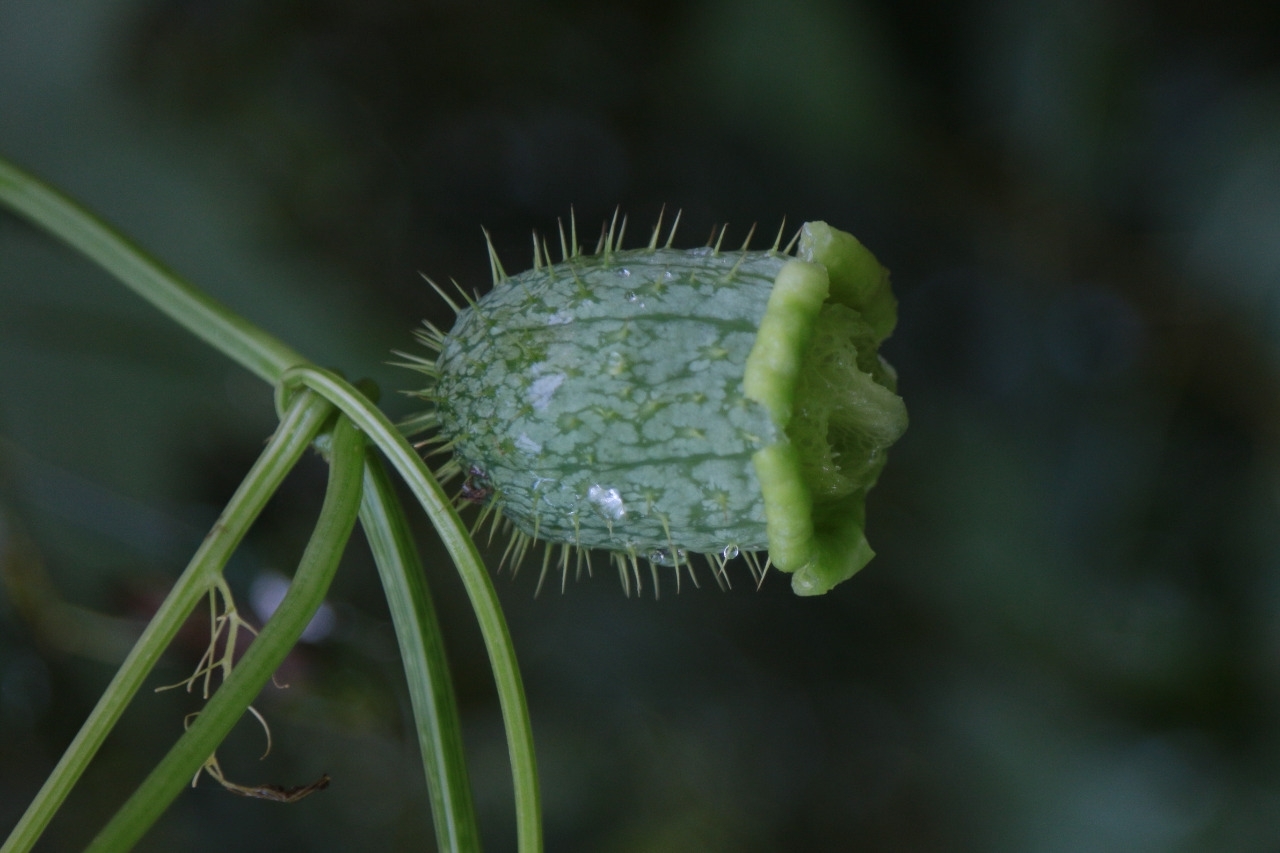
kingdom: Plantae
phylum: Tracheophyta
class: Magnoliopsida
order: Cucurbitales
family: Cucurbitaceae
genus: Echinocystis
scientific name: Echinocystis lobata
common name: Wild cucumber
